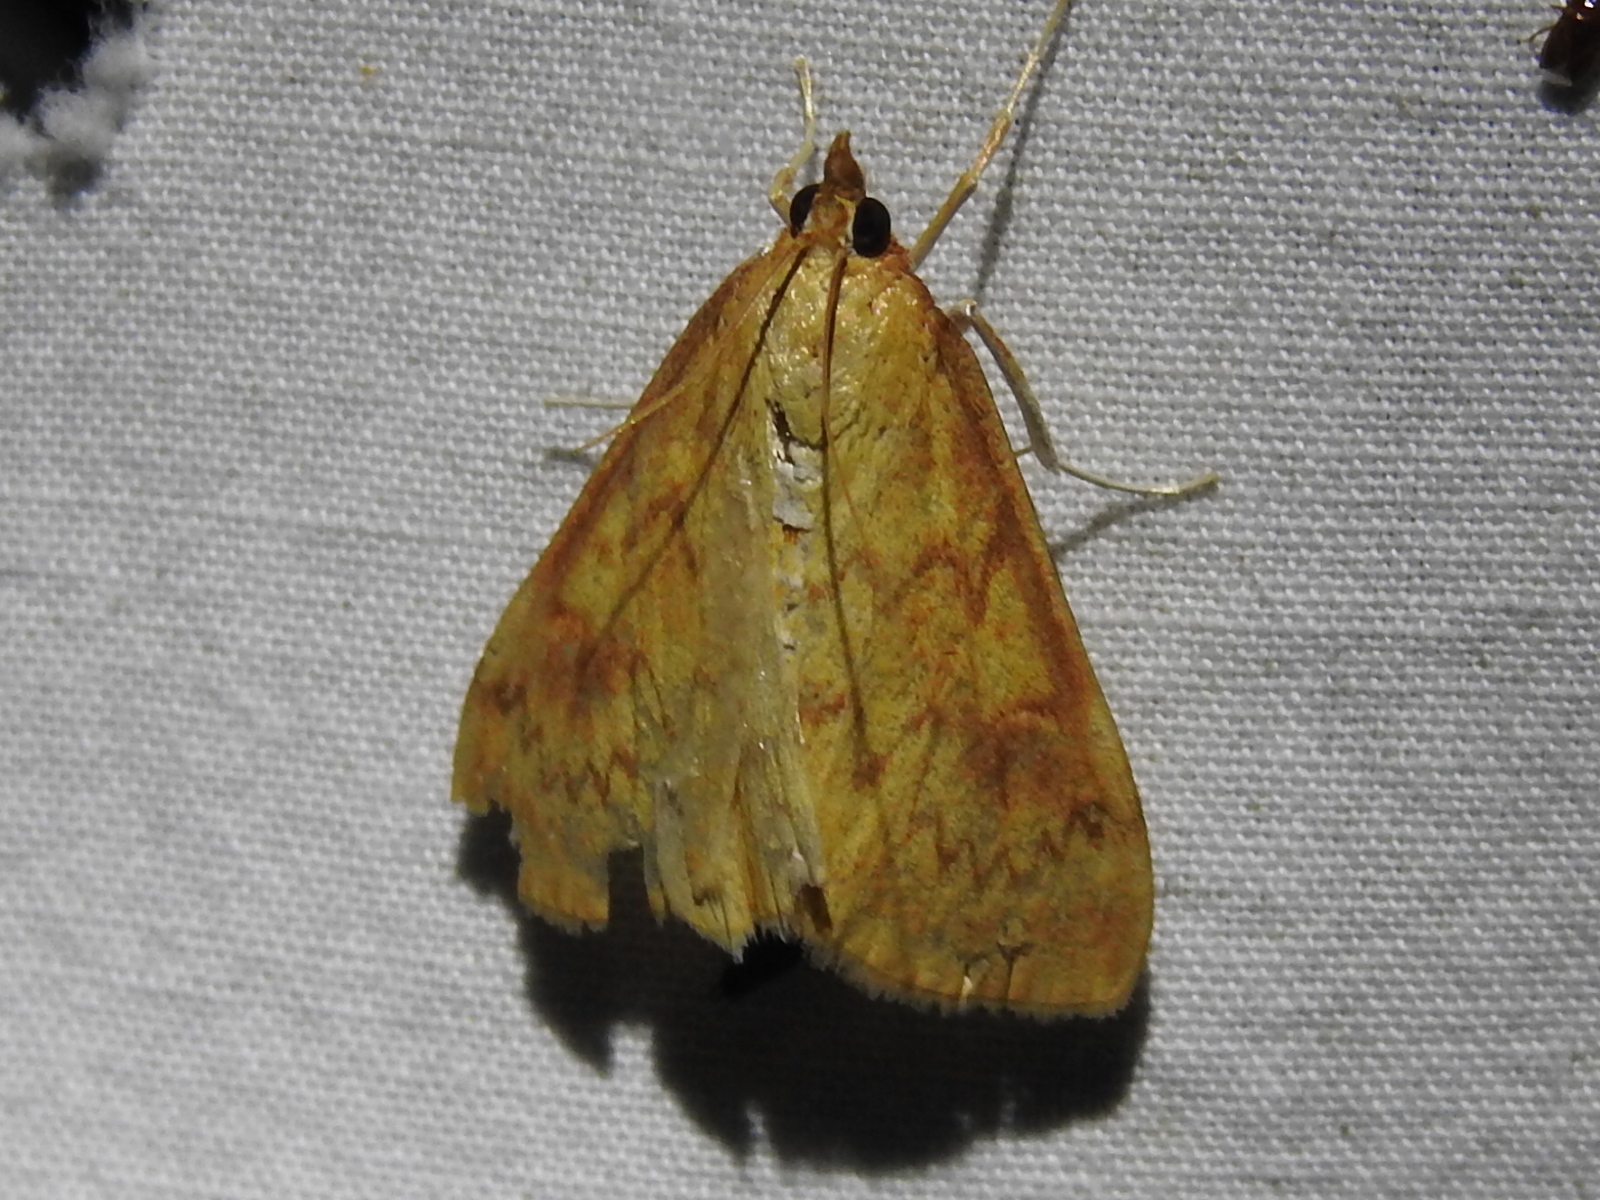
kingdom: Animalia
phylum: Arthropoda
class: Insecta
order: Lepidoptera
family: Crambidae
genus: Ostrinia
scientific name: Ostrinia penitalis
